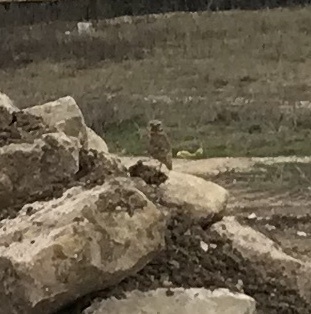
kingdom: Animalia
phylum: Chordata
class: Aves
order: Strigiformes
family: Strigidae
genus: Athene
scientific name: Athene cunicularia
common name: Burrowing owl
